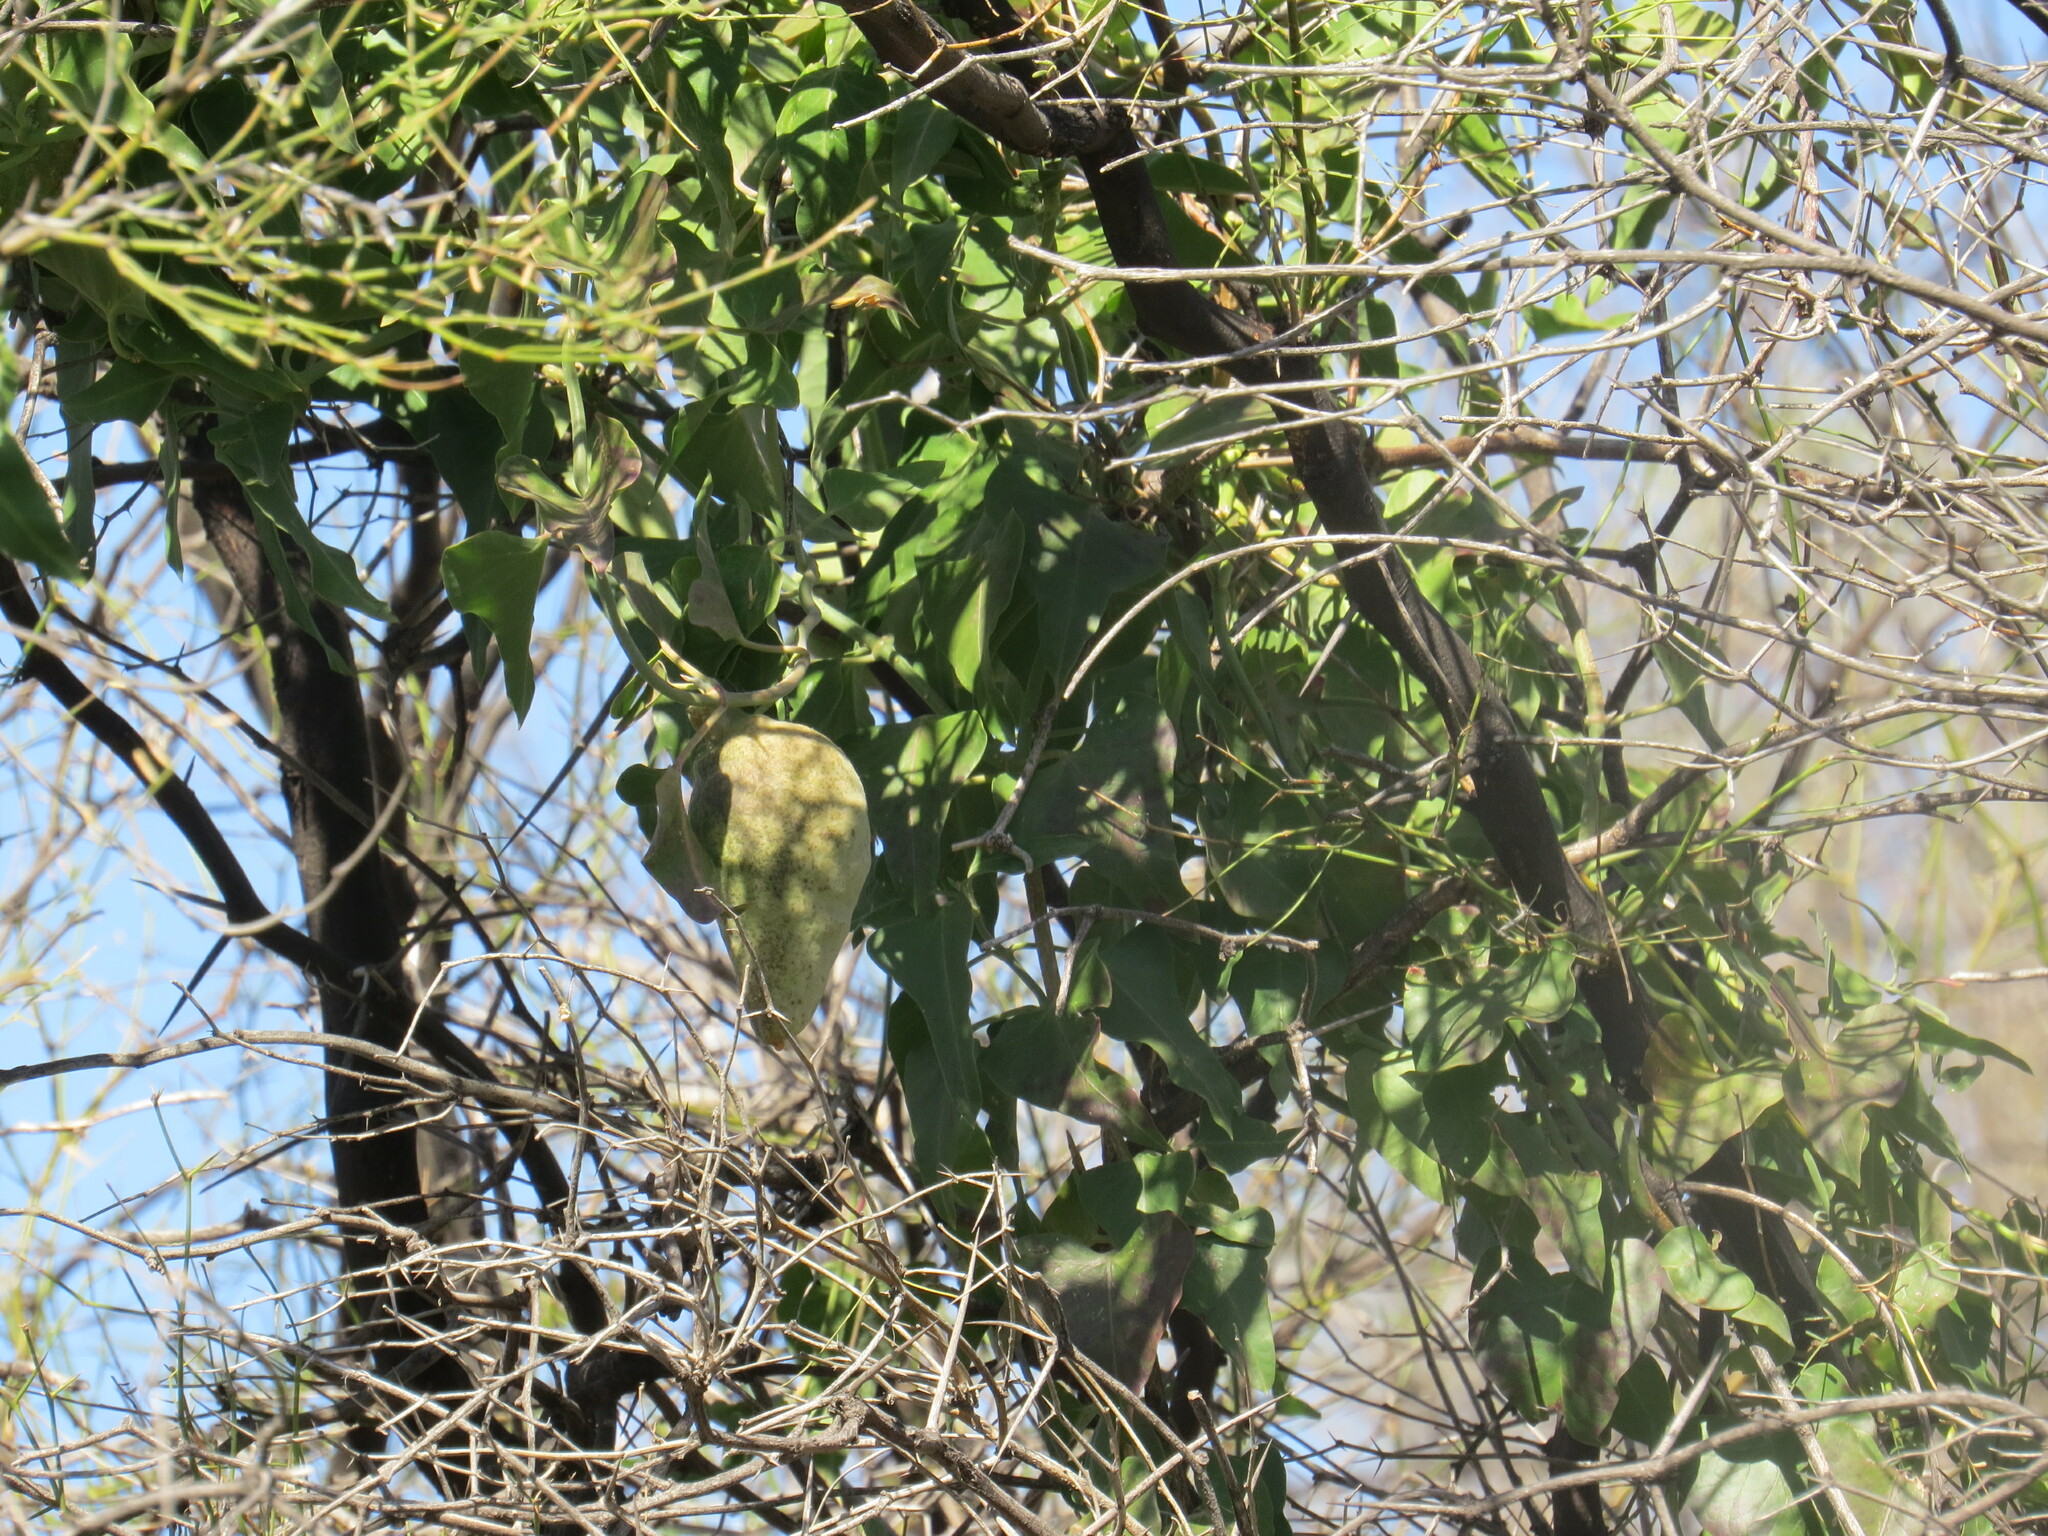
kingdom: Plantae
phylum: Tracheophyta
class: Magnoliopsida
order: Gentianales
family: Apocynaceae
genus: Araujia
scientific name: Araujia odorata
